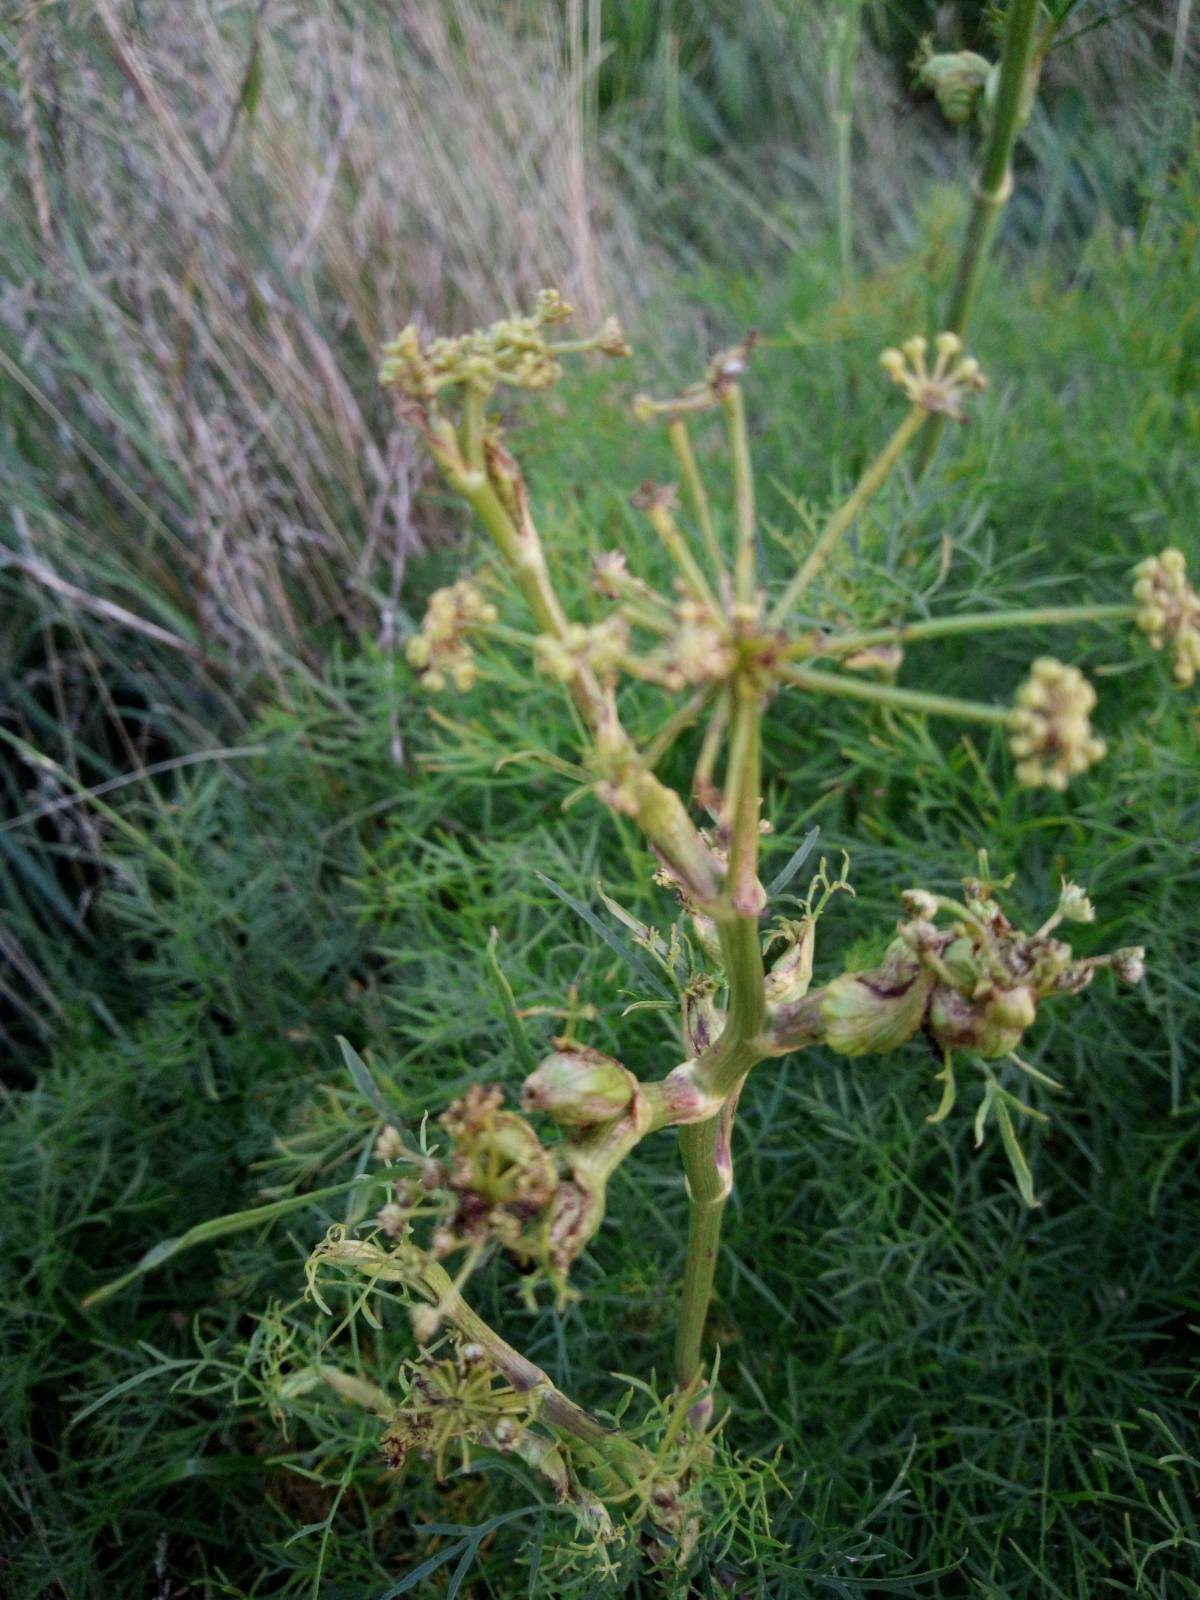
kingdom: Plantae
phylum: Tracheophyta
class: Magnoliopsida
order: Apiales
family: Apiaceae
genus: Silaum
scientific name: Silaum silaus
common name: Pepper-saxifrage
